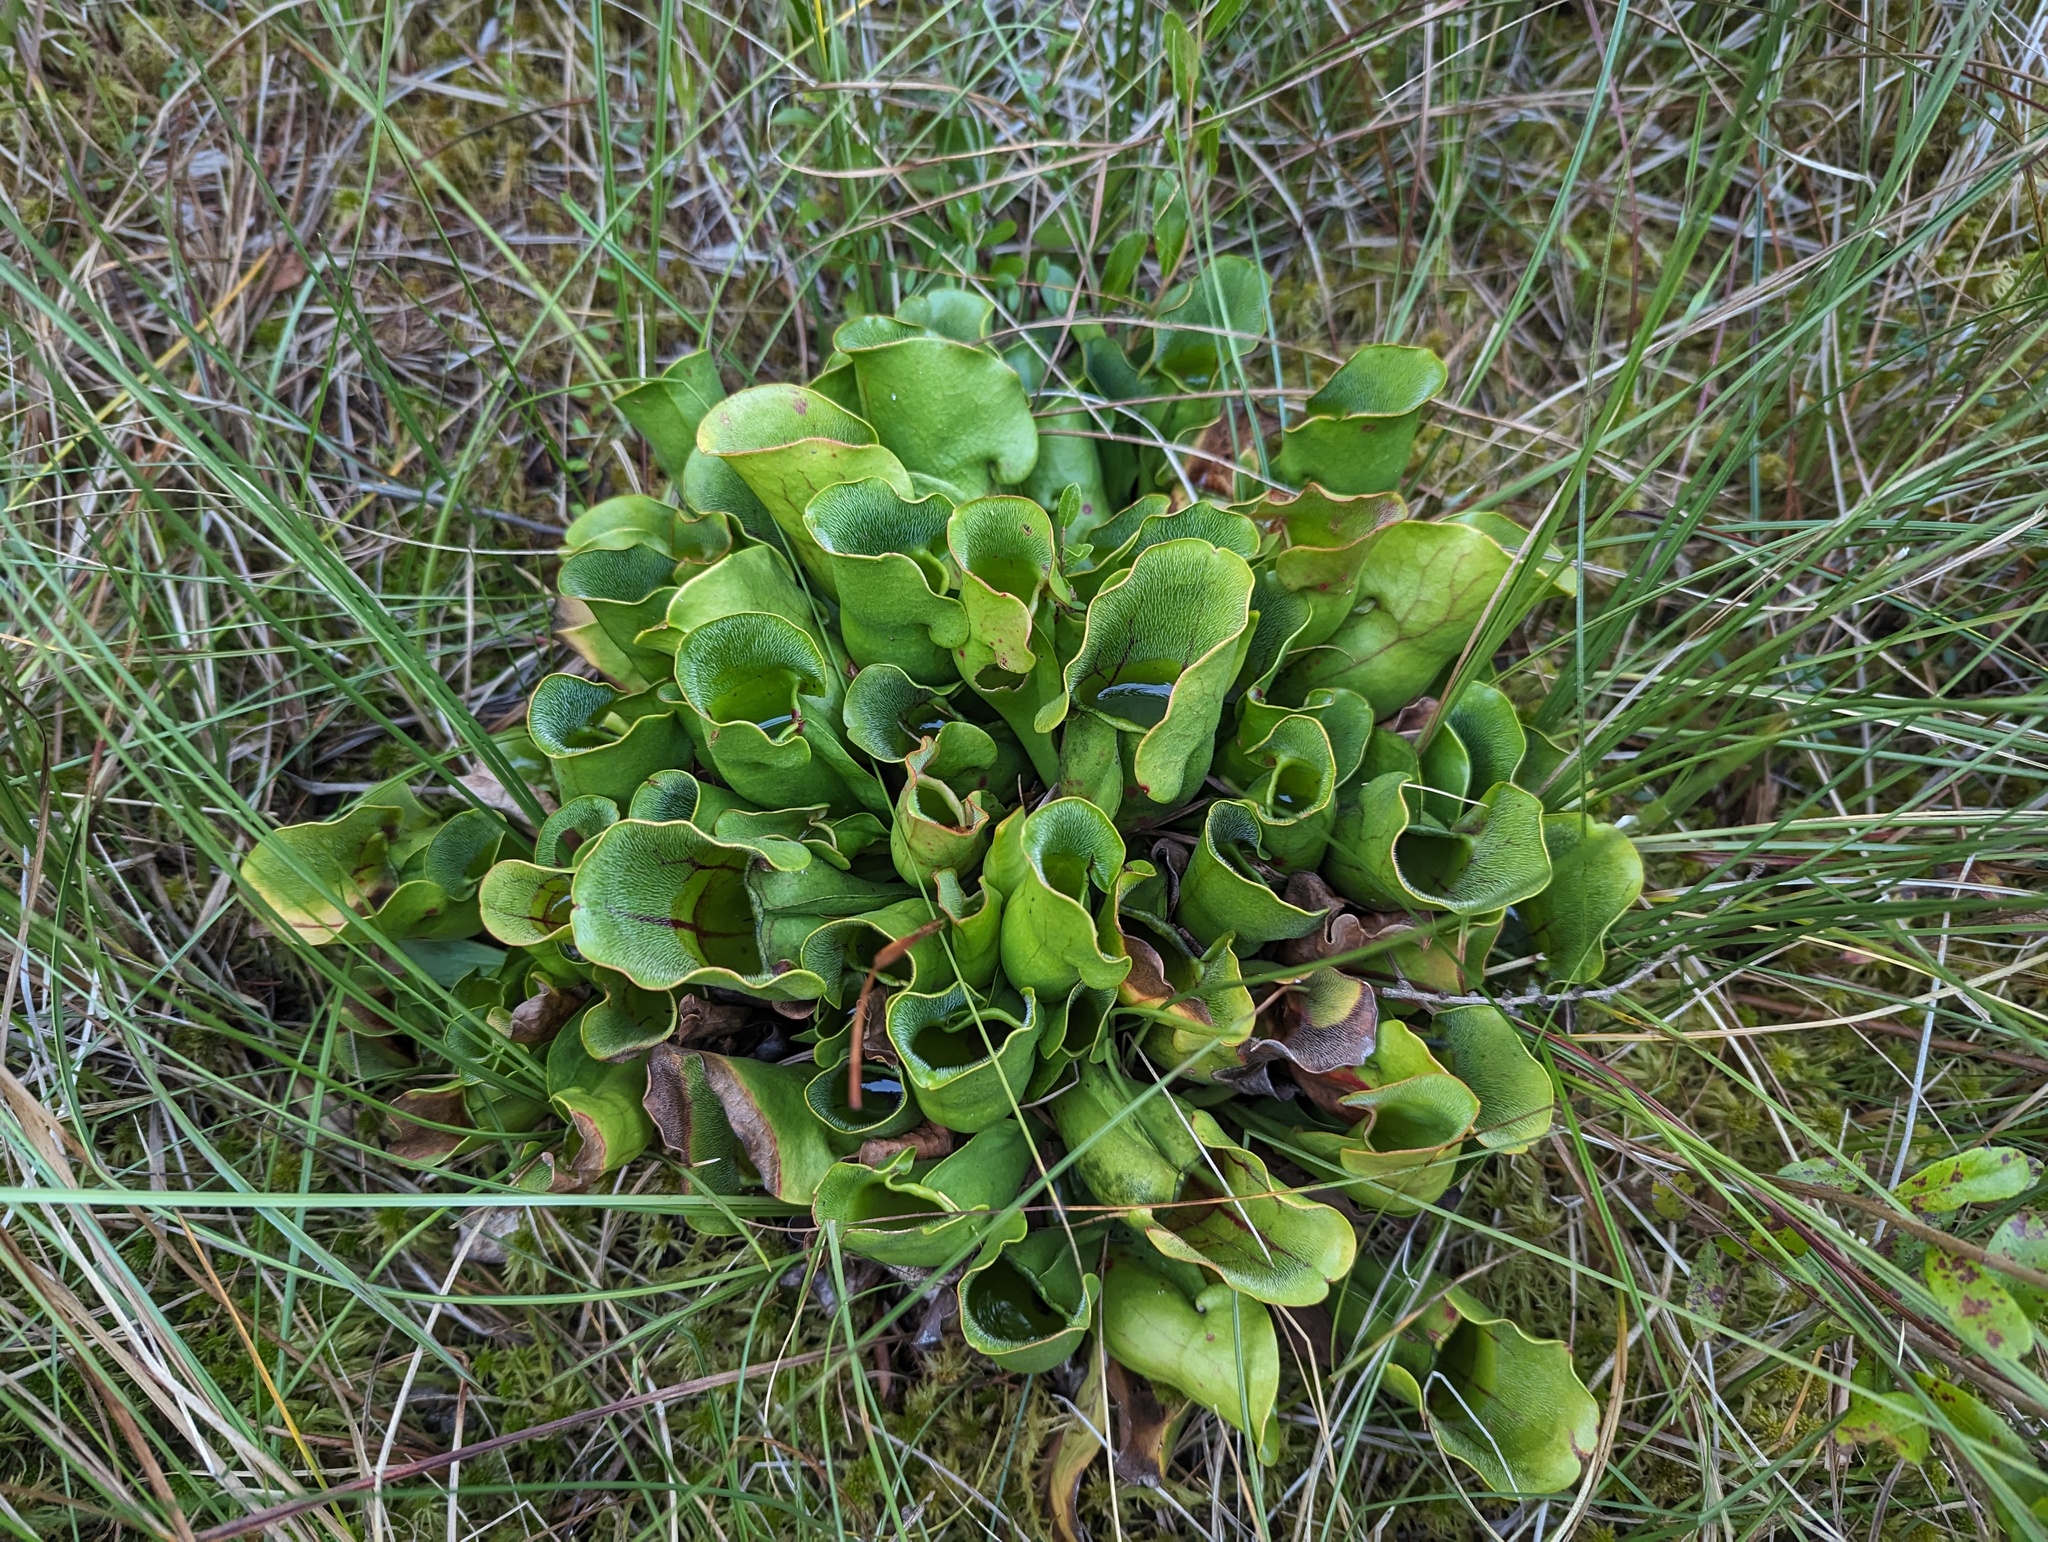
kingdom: Plantae
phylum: Tracheophyta
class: Magnoliopsida
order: Ericales
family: Sarraceniaceae
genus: Sarracenia
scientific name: Sarracenia purpurea
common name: Pitcherplant
